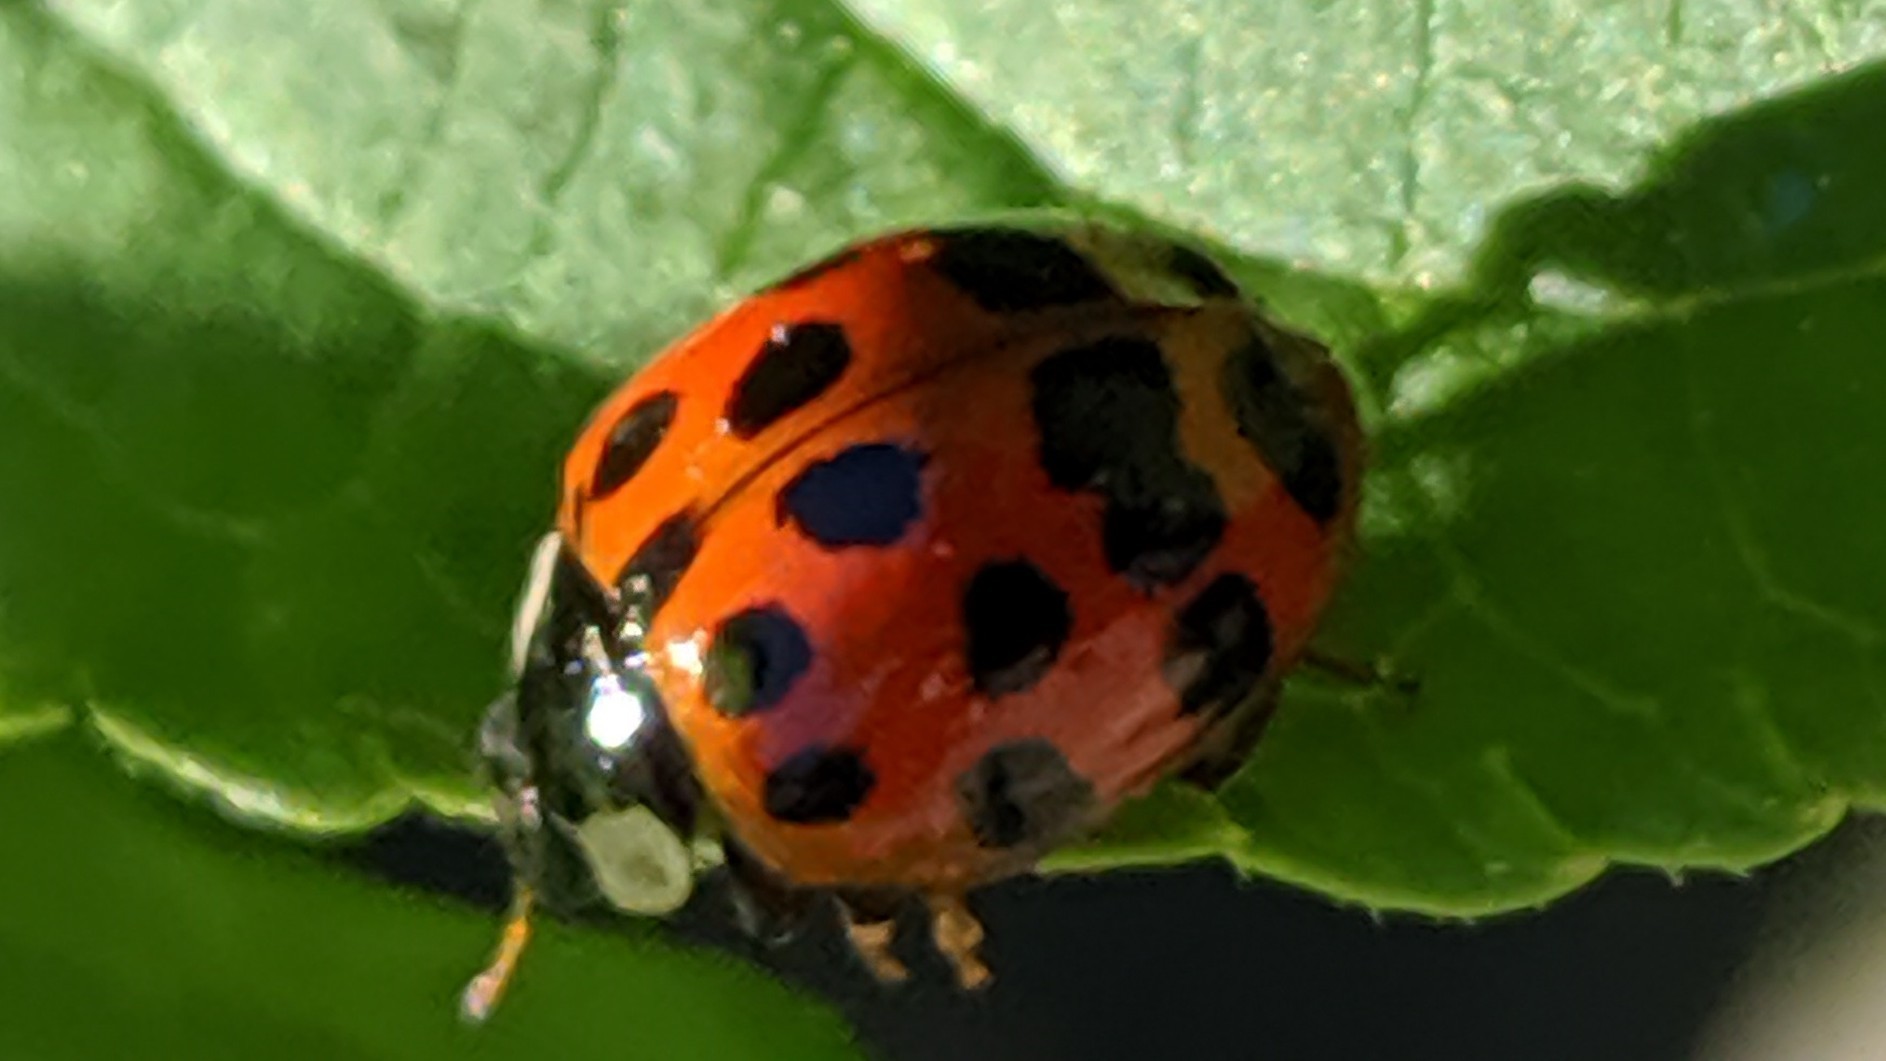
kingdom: Animalia
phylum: Arthropoda
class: Insecta
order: Coleoptera
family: Coccinellidae
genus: Harmonia
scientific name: Harmonia axyridis
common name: Harlequin ladybird
